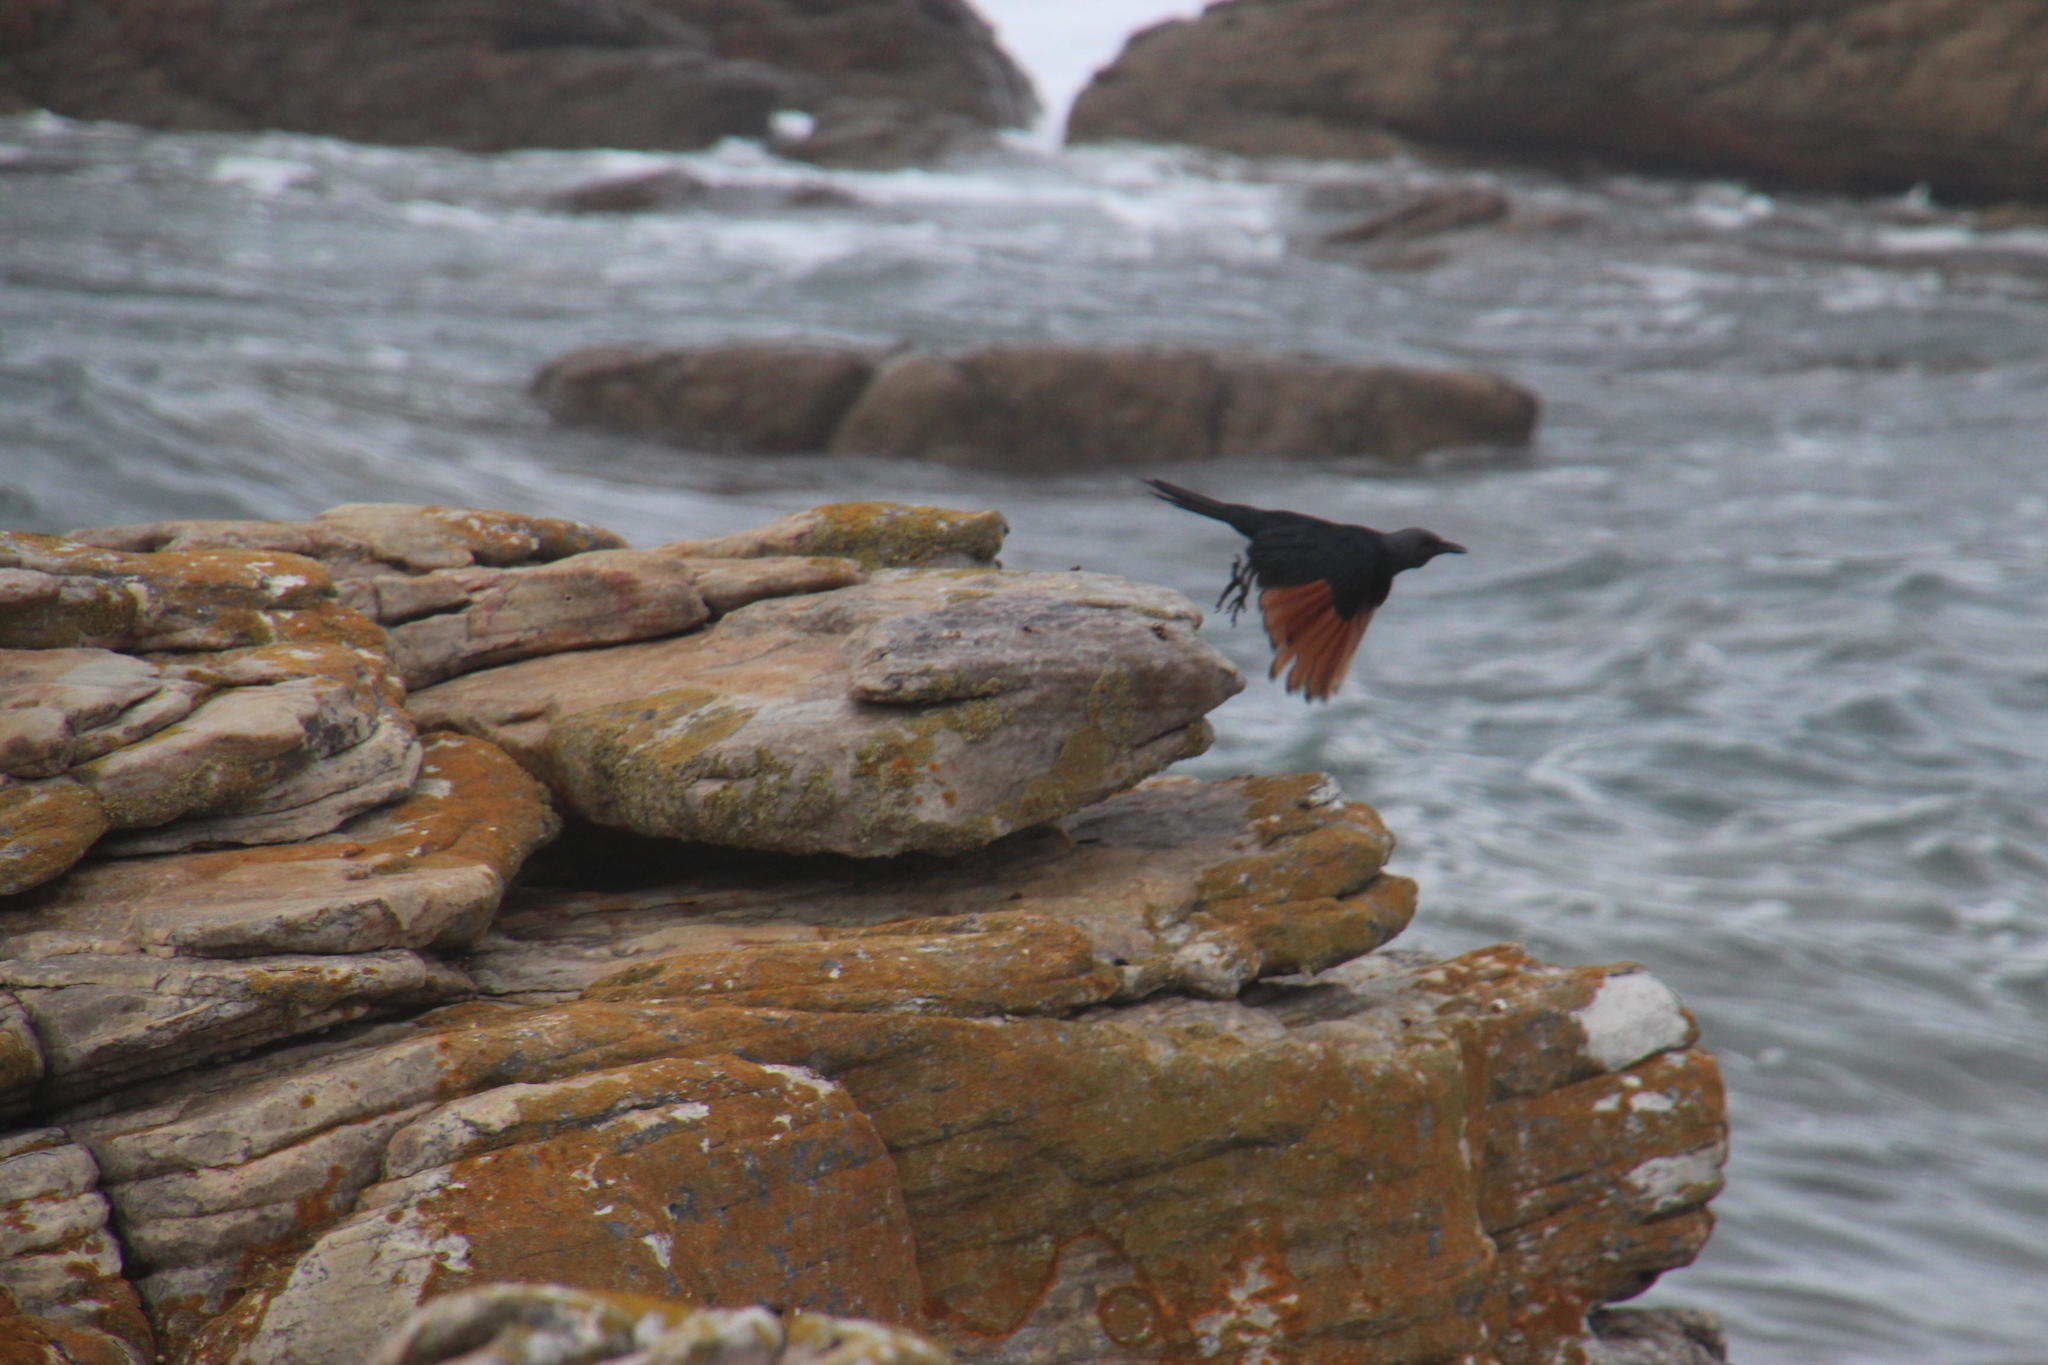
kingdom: Animalia
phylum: Chordata
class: Aves
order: Passeriformes
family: Sturnidae
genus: Onychognathus
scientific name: Onychognathus morio
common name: Red-winged starling
